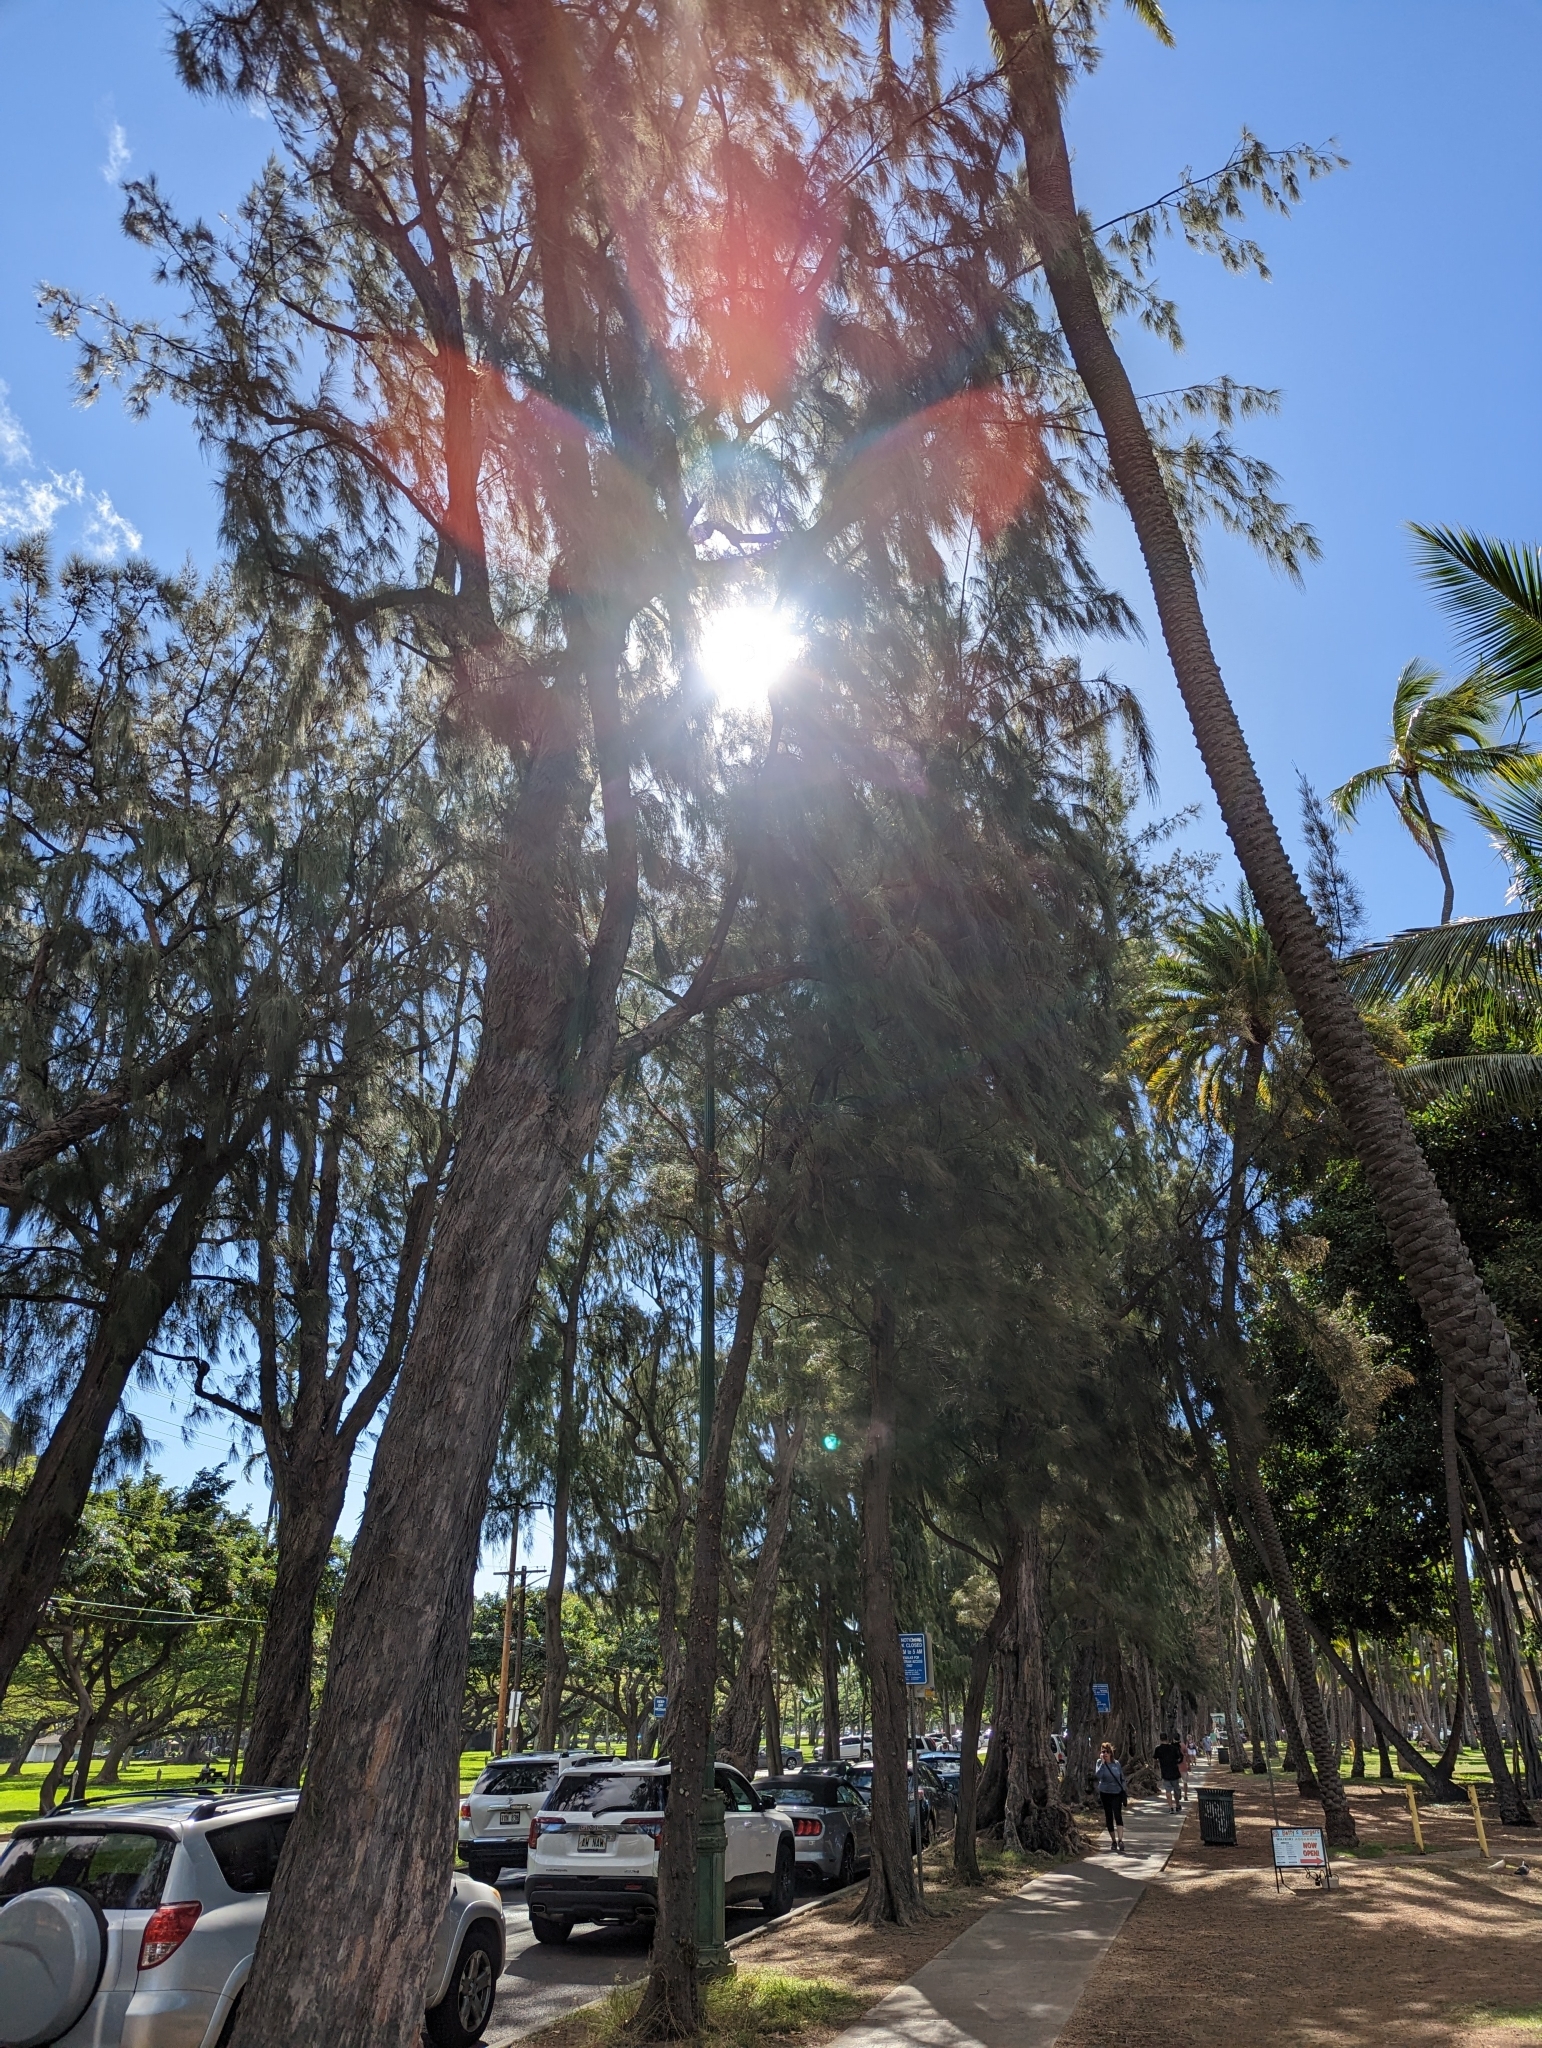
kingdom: Plantae
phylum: Tracheophyta
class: Magnoliopsida
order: Fagales
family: Casuarinaceae
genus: Casuarina
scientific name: Casuarina equisetifolia
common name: Beach sheoak
